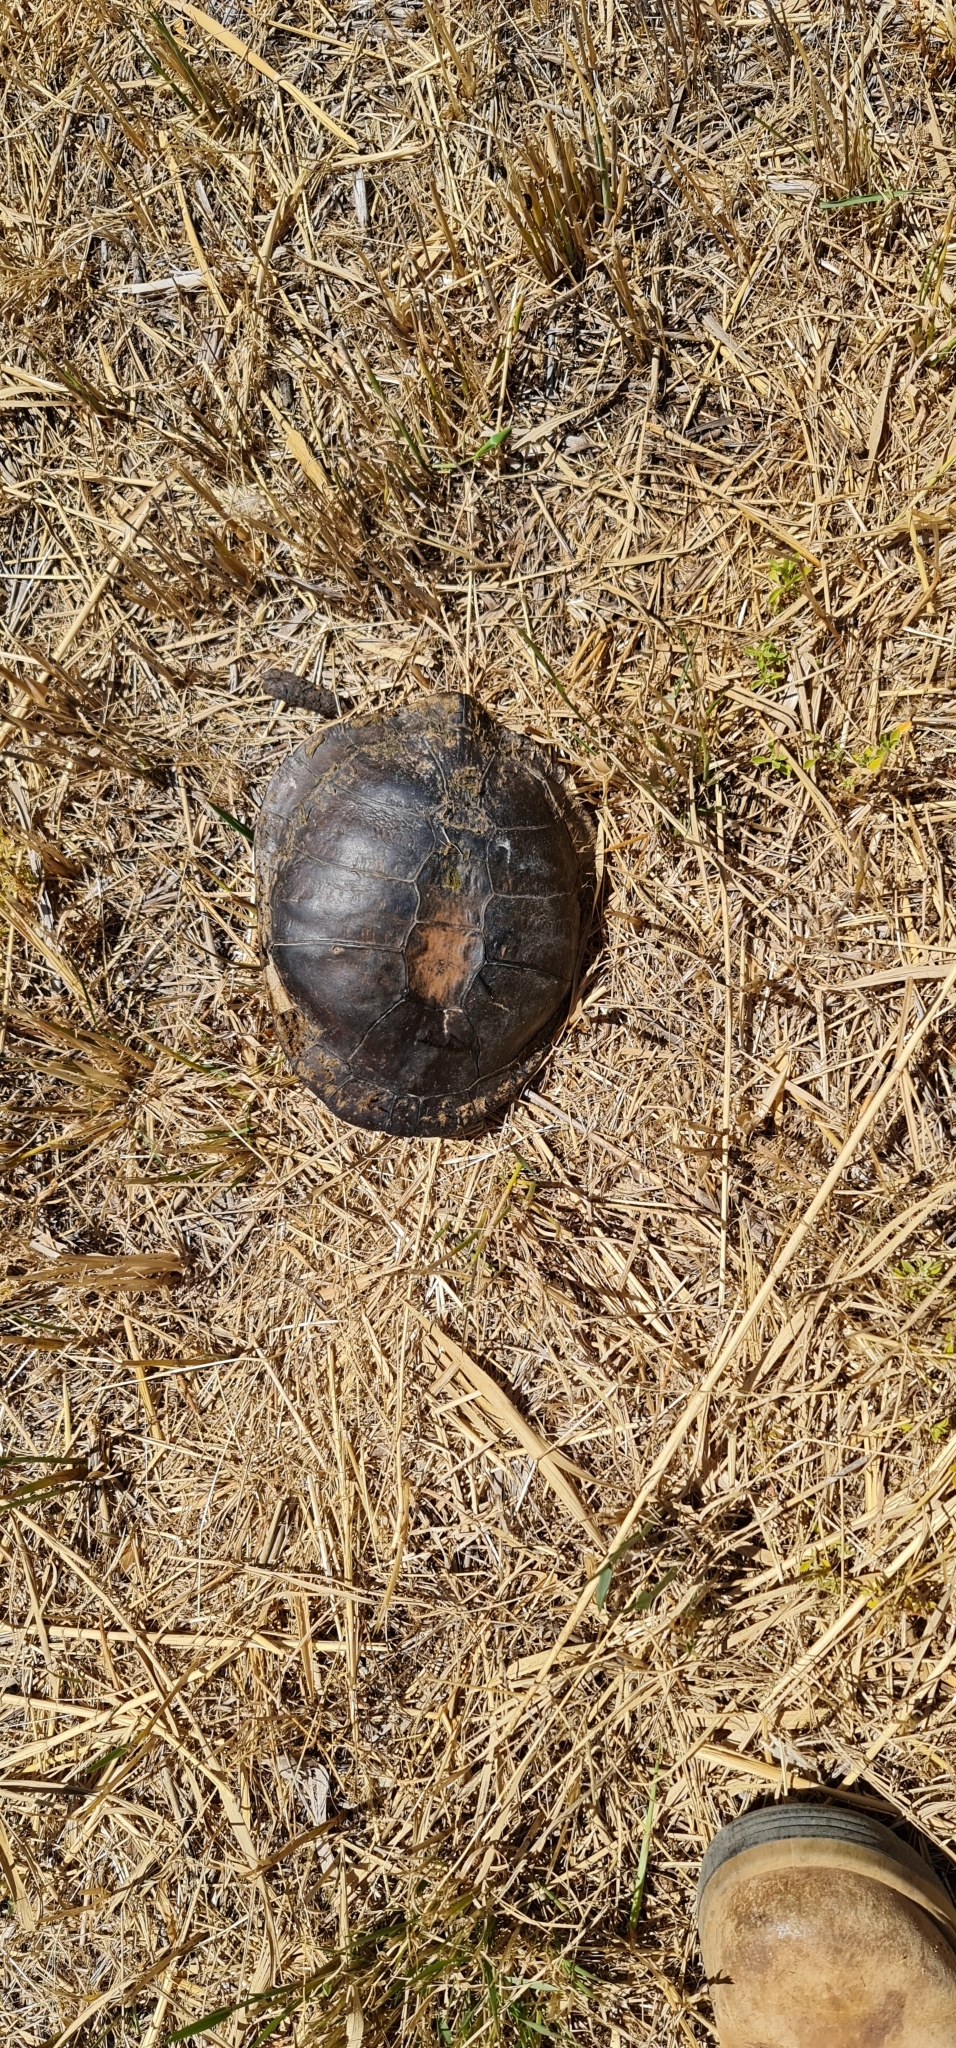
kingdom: Animalia
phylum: Chordata
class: Testudines
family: Chelidae
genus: Chelodina
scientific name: Chelodina longicollis
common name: Eastern snake-necked turtle
